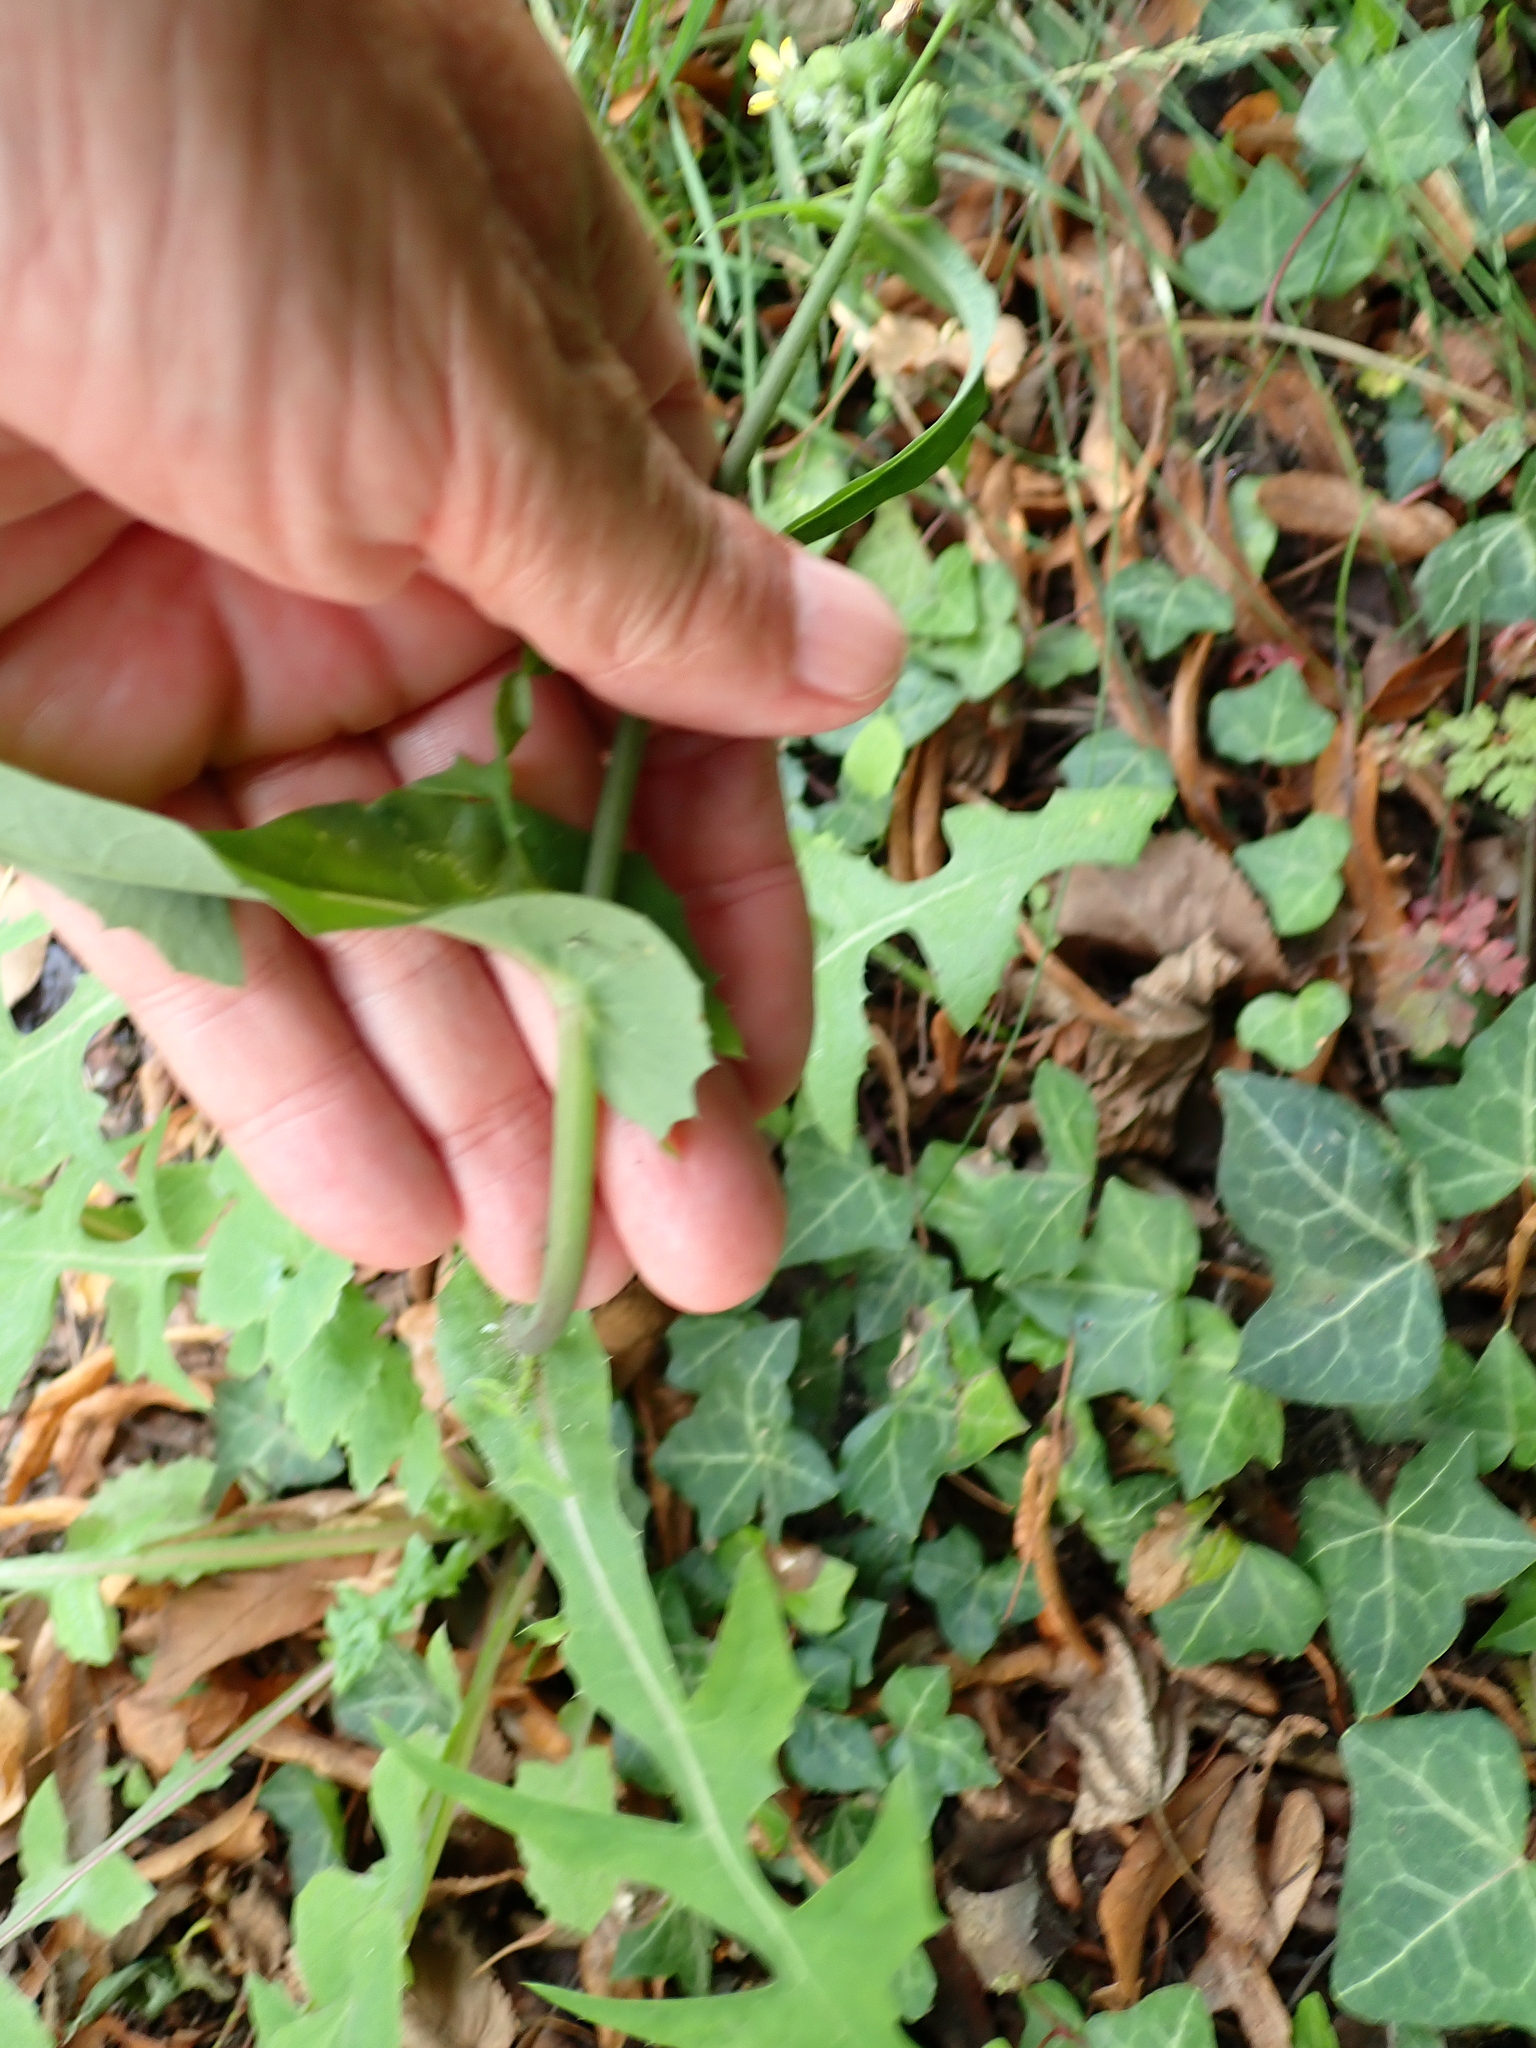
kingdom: Plantae
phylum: Tracheophyta
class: Magnoliopsida
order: Asterales
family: Asteraceae
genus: Sonchus
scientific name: Sonchus oleraceus
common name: Common sowthistle
